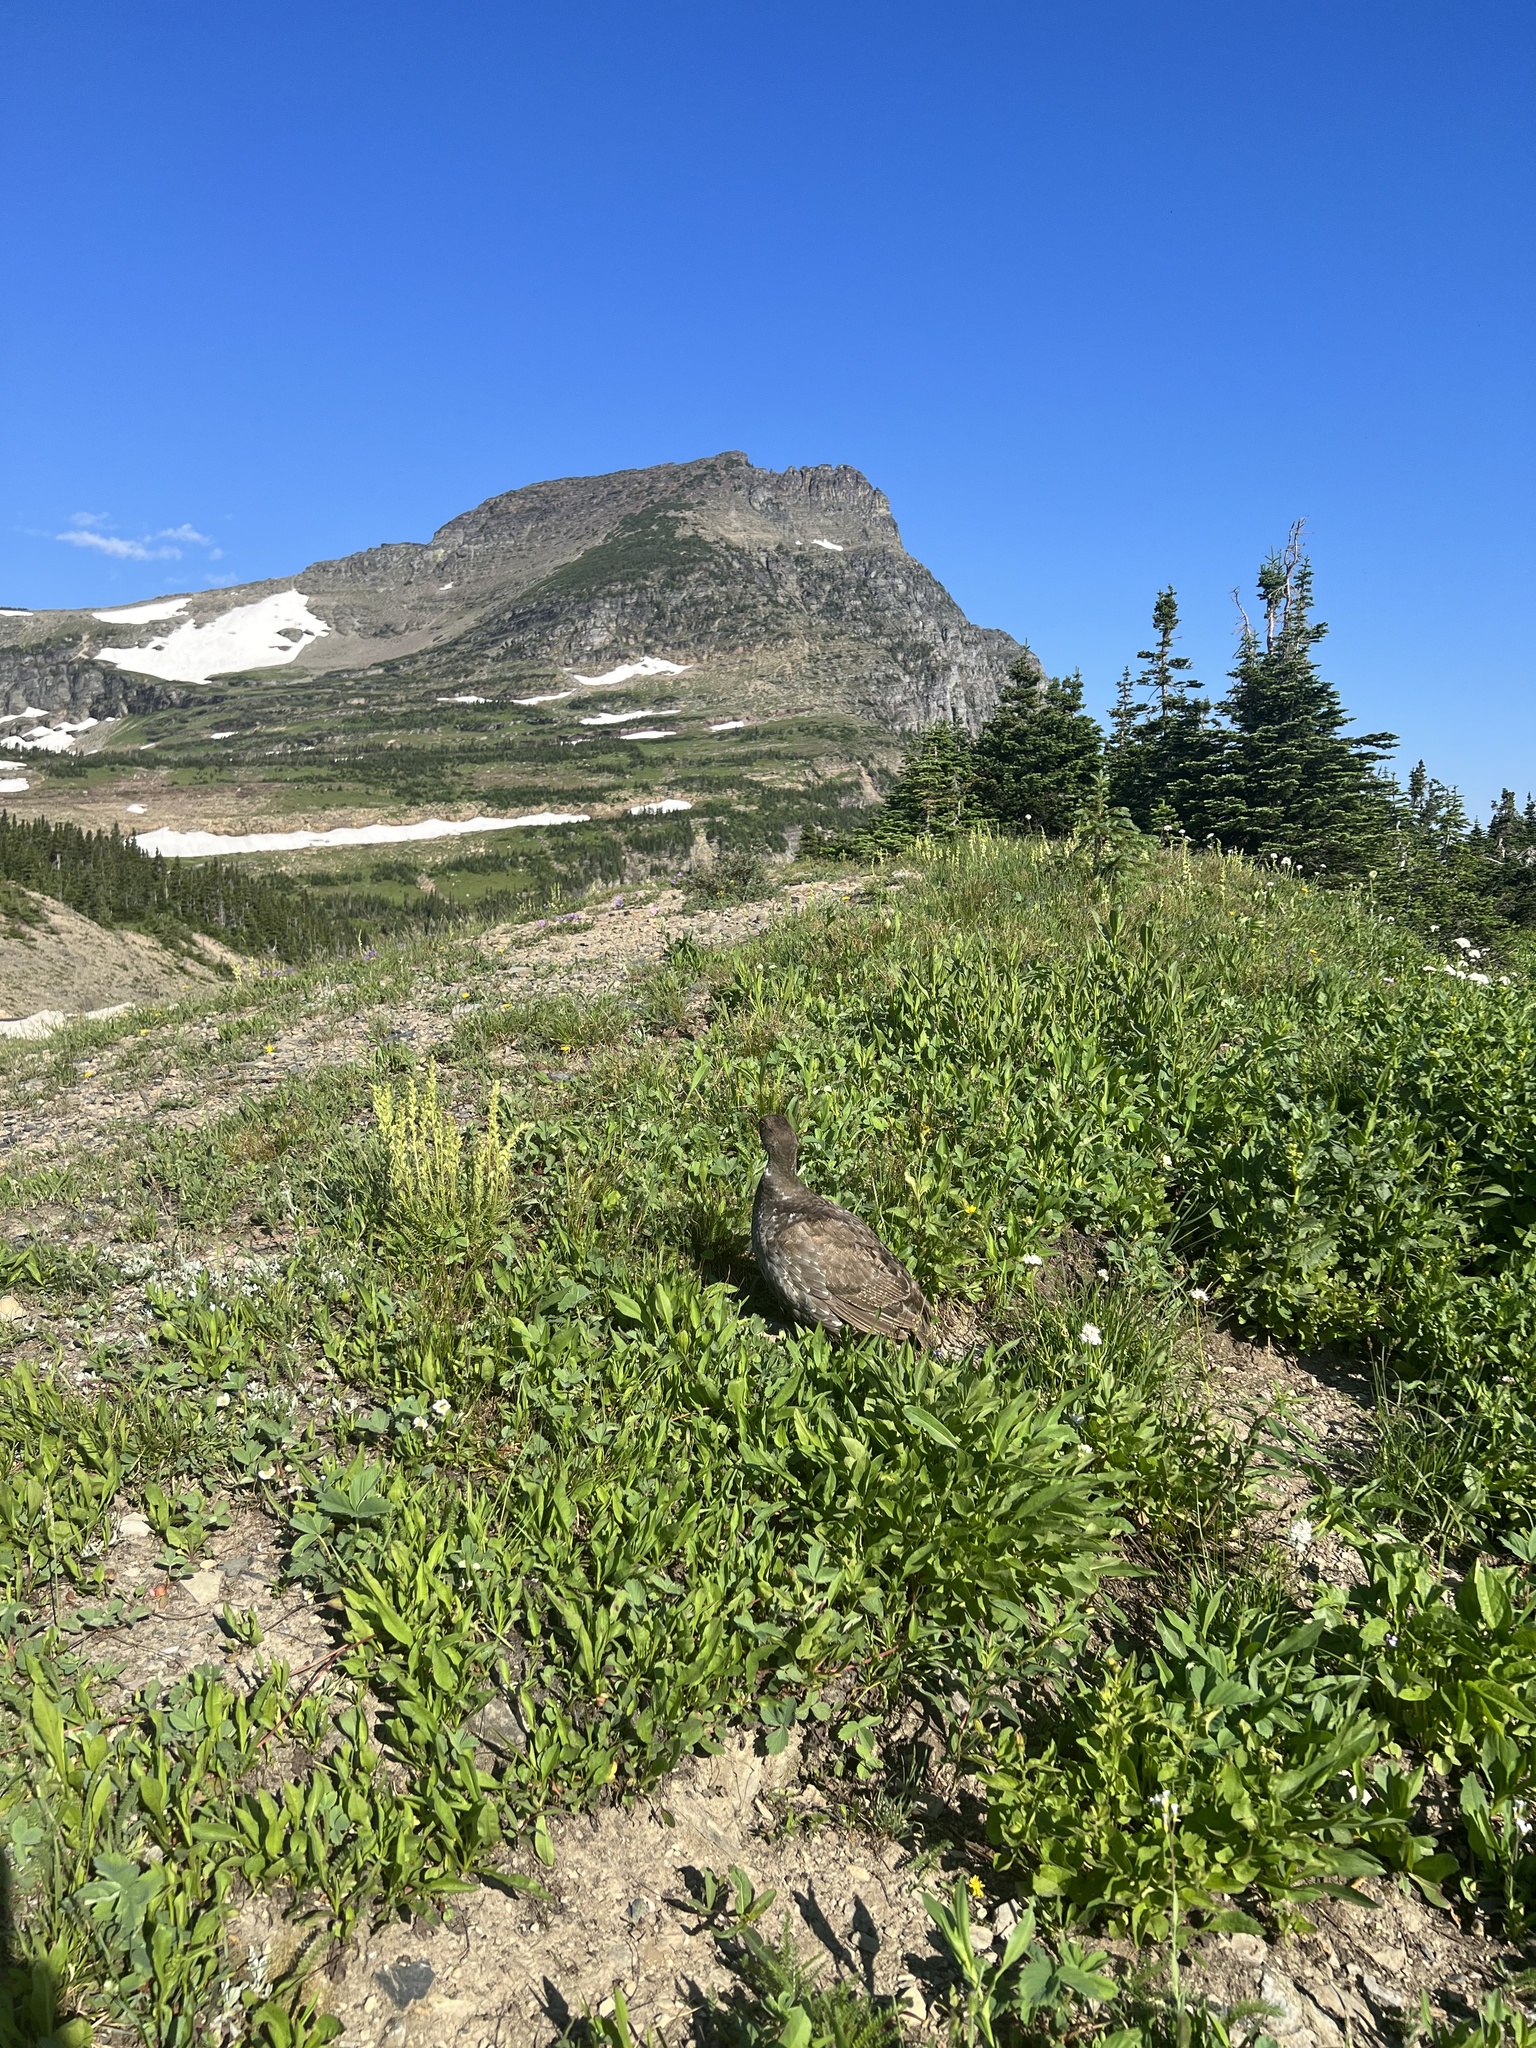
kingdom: Animalia
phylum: Chordata
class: Aves
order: Galliformes
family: Phasianidae
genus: Dendragapus
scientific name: Dendragapus obscurus
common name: Dusky grouse
